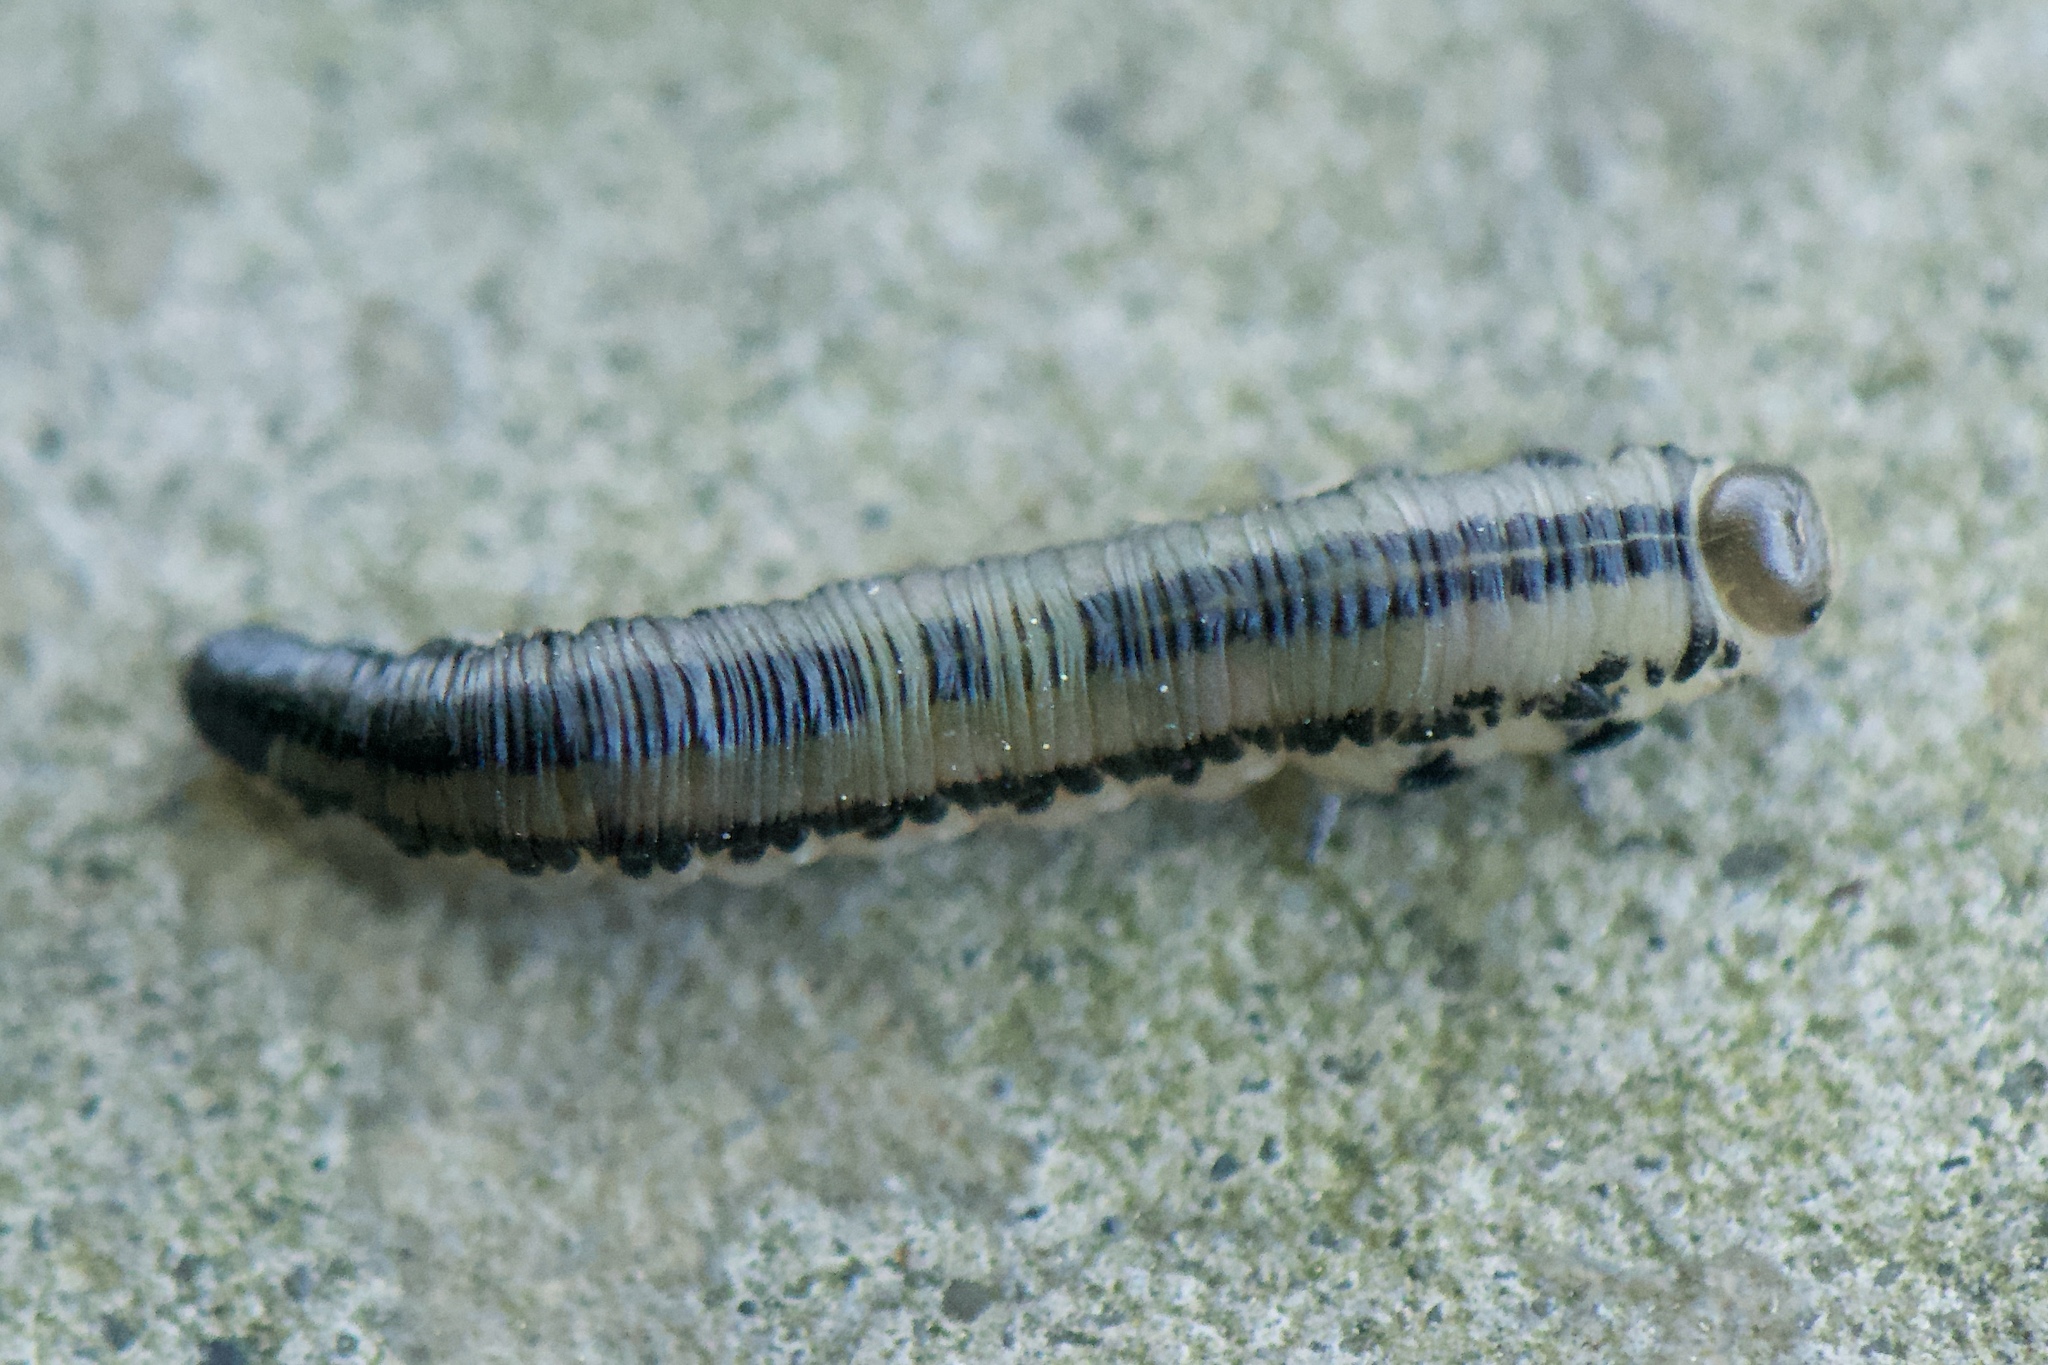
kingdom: Animalia
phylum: Arthropoda
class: Insecta
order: Hymenoptera
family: Diprionidae
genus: Neodiprion
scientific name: Neodiprion
